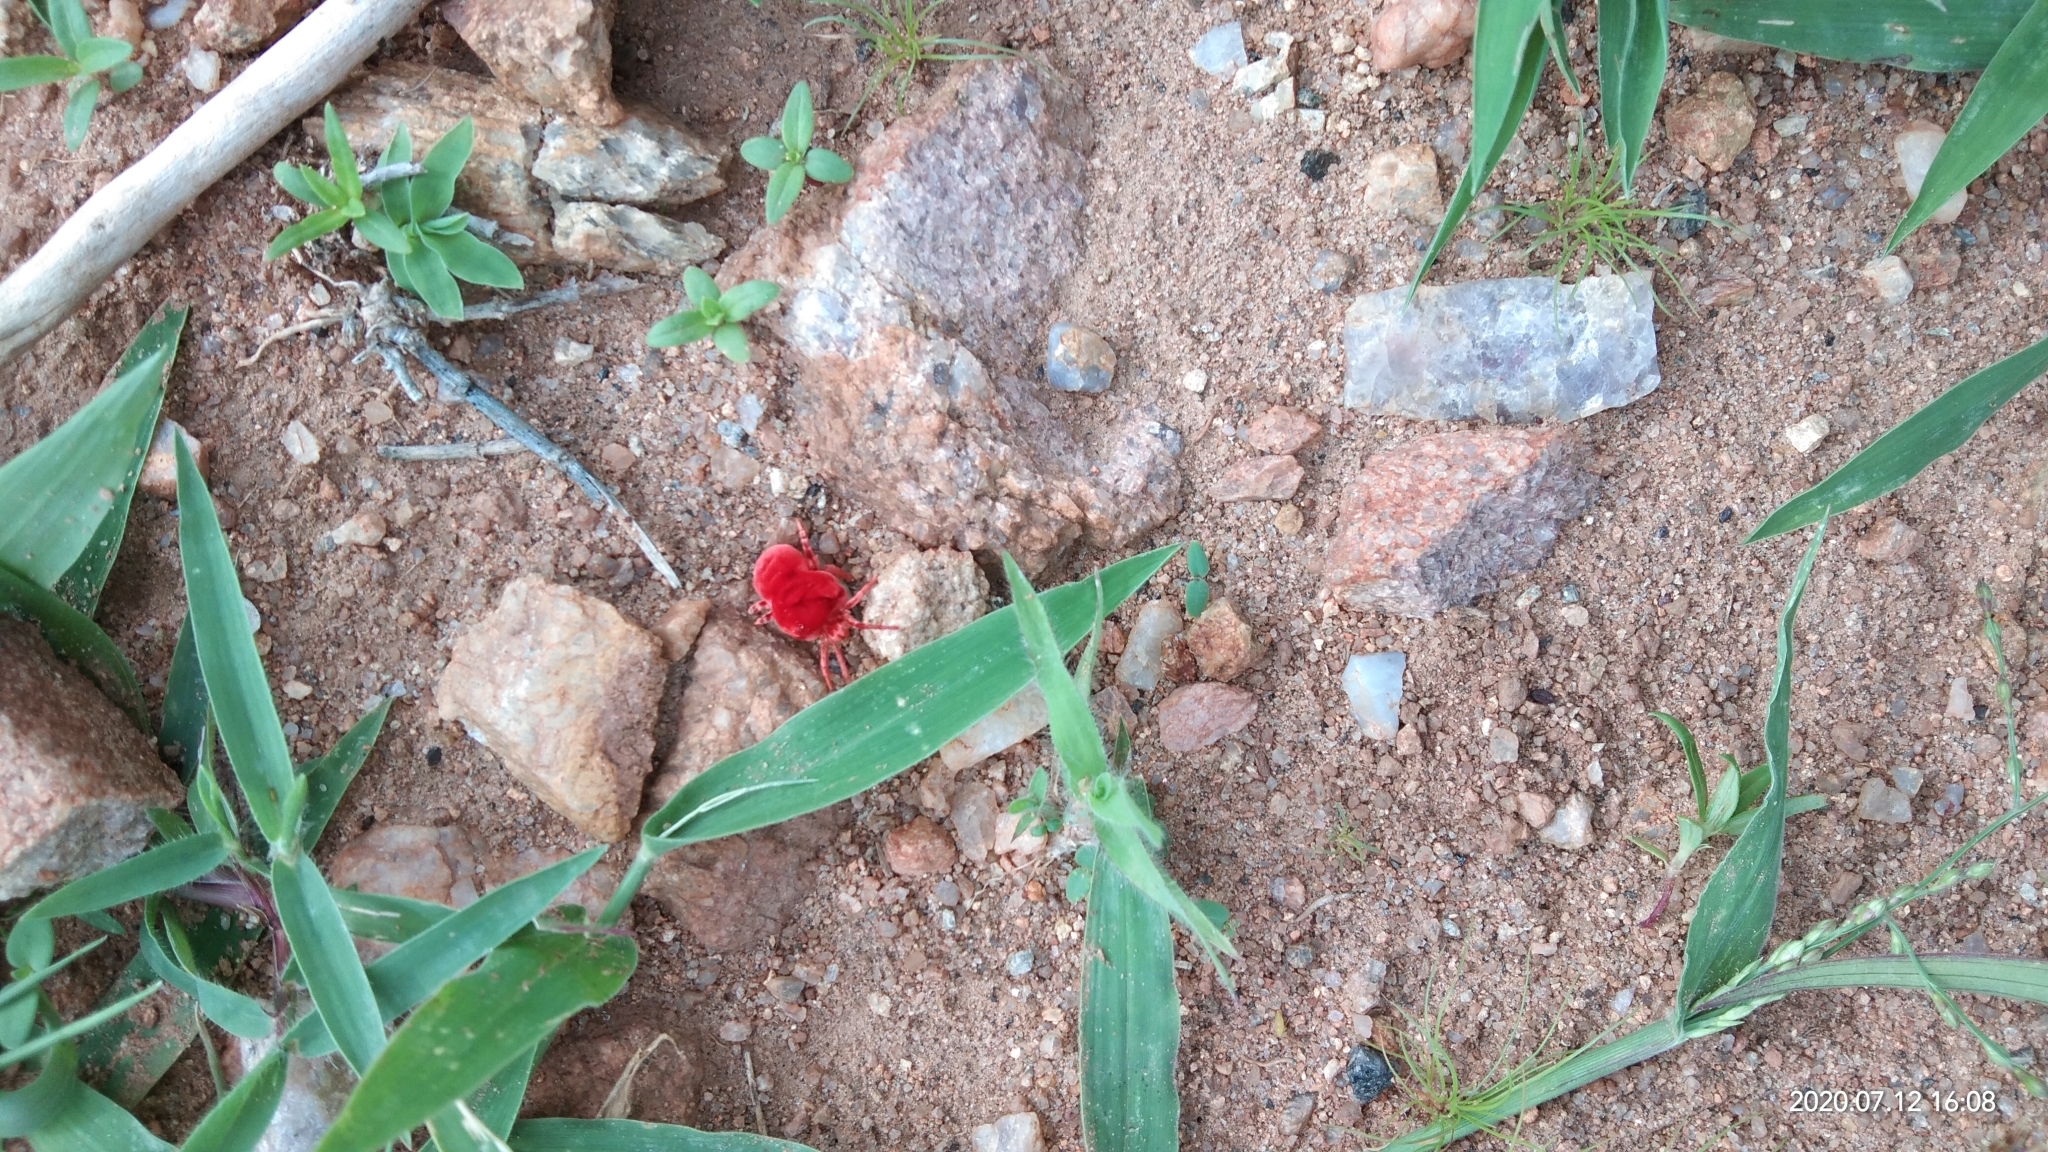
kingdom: Animalia
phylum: Arthropoda
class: Arachnida
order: Trombidiformes
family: Leeuwenhoekiidae
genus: Dinothrombium
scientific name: Dinothrombium
